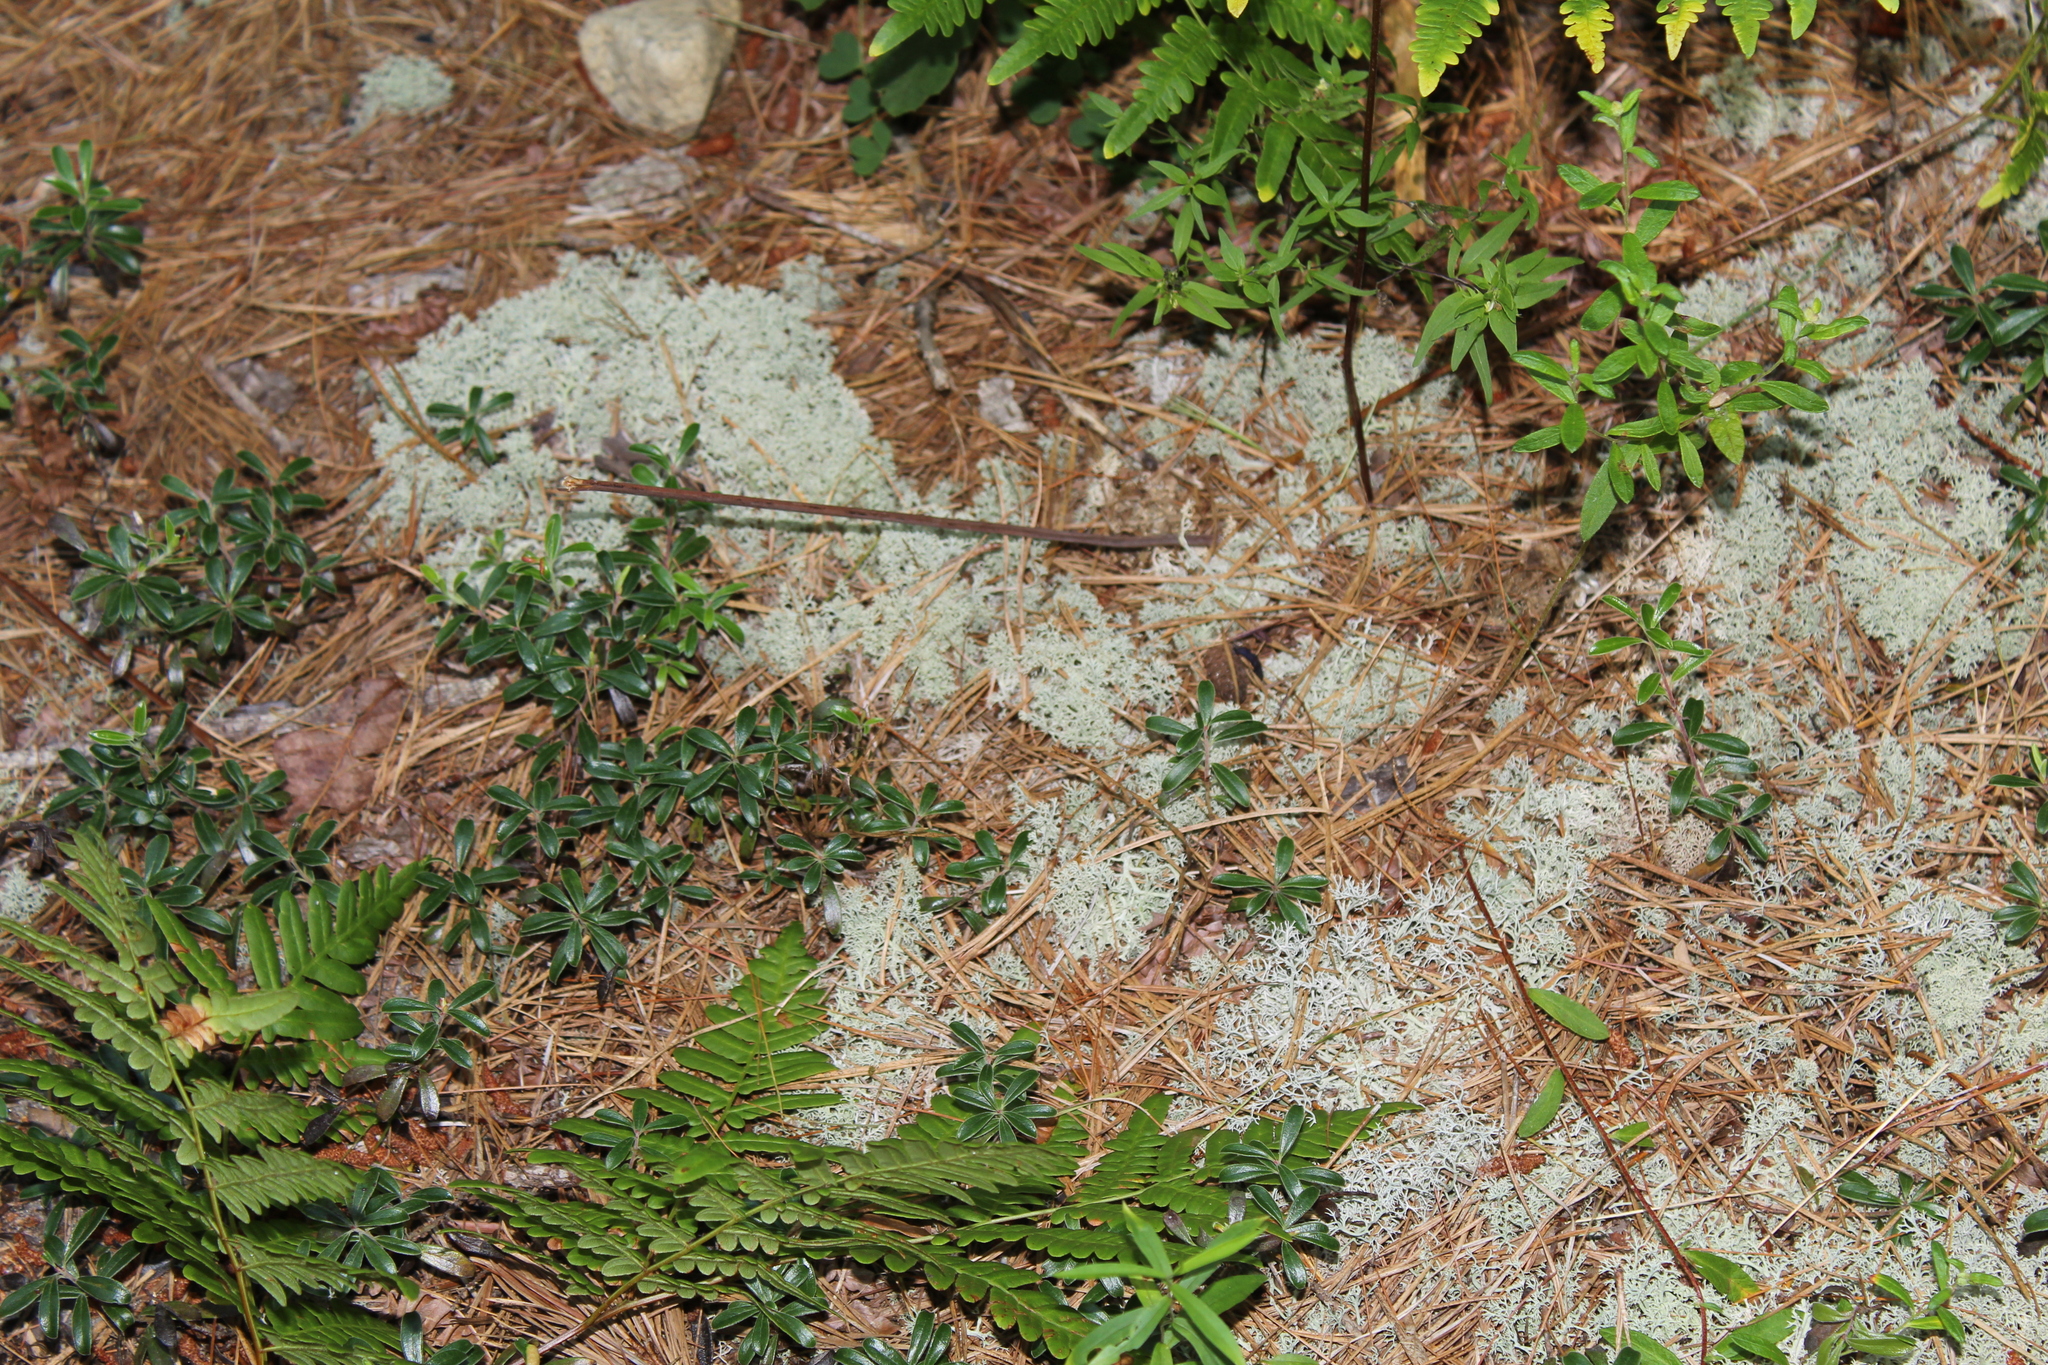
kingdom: Plantae
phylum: Tracheophyta
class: Magnoliopsida
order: Ericales
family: Ericaceae
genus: Arctostaphylos
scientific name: Arctostaphylos uva-ursi
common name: Bearberry
